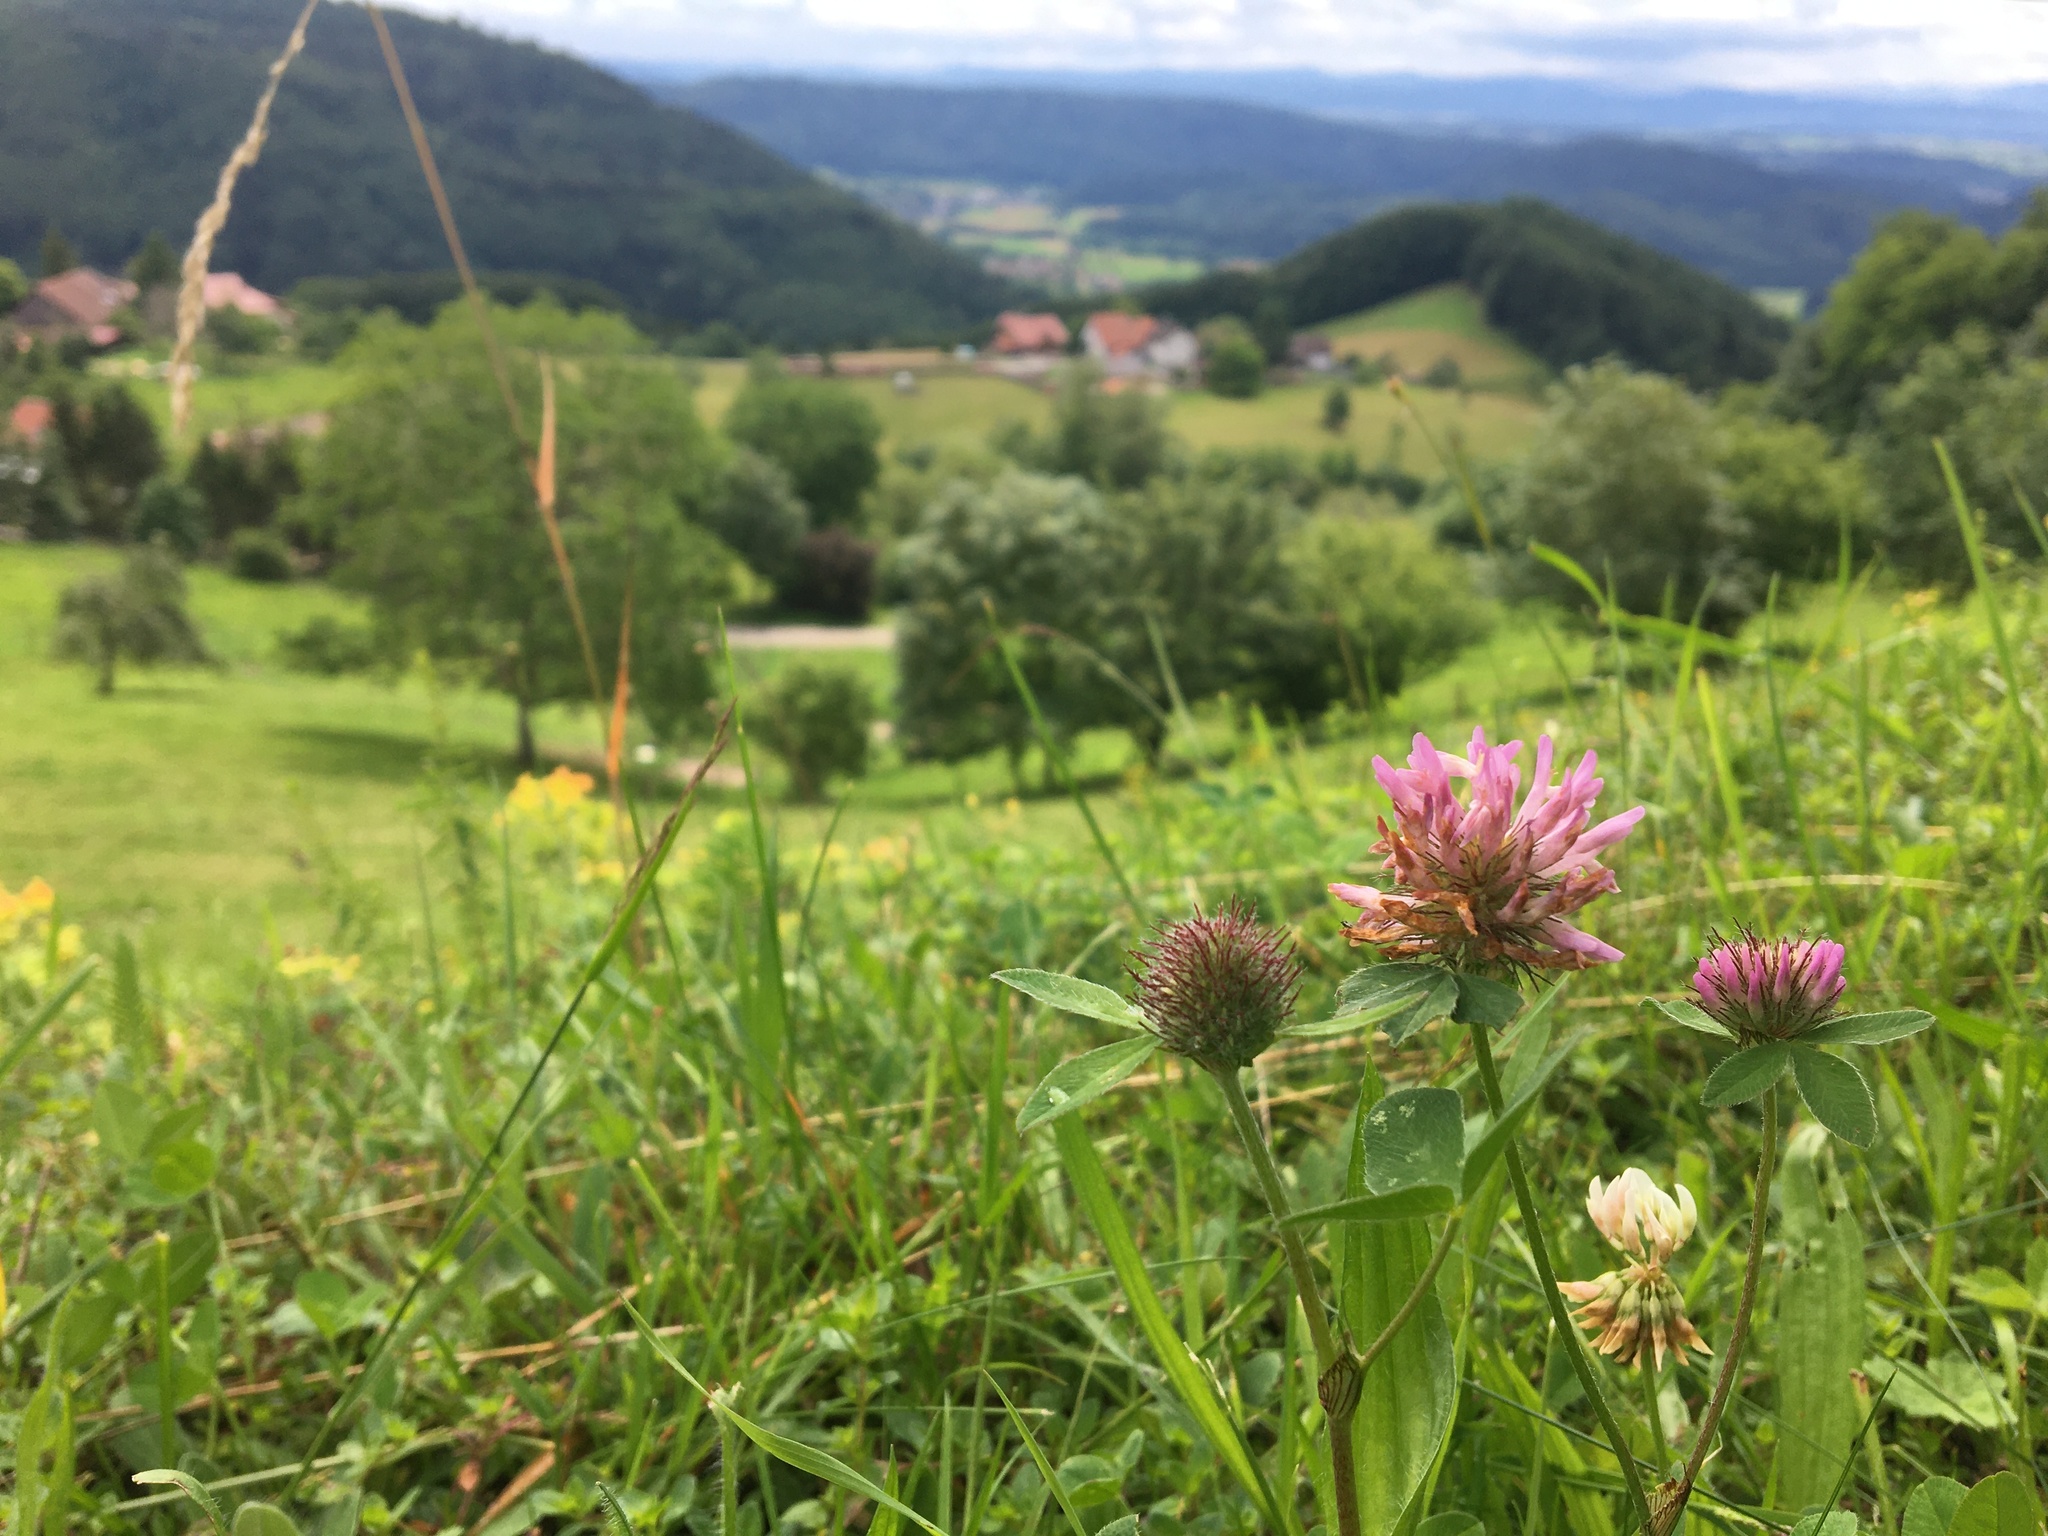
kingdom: Plantae
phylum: Tracheophyta
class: Magnoliopsida
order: Fabales
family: Fabaceae
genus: Trifolium
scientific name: Trifolium pratense
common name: Red clover
